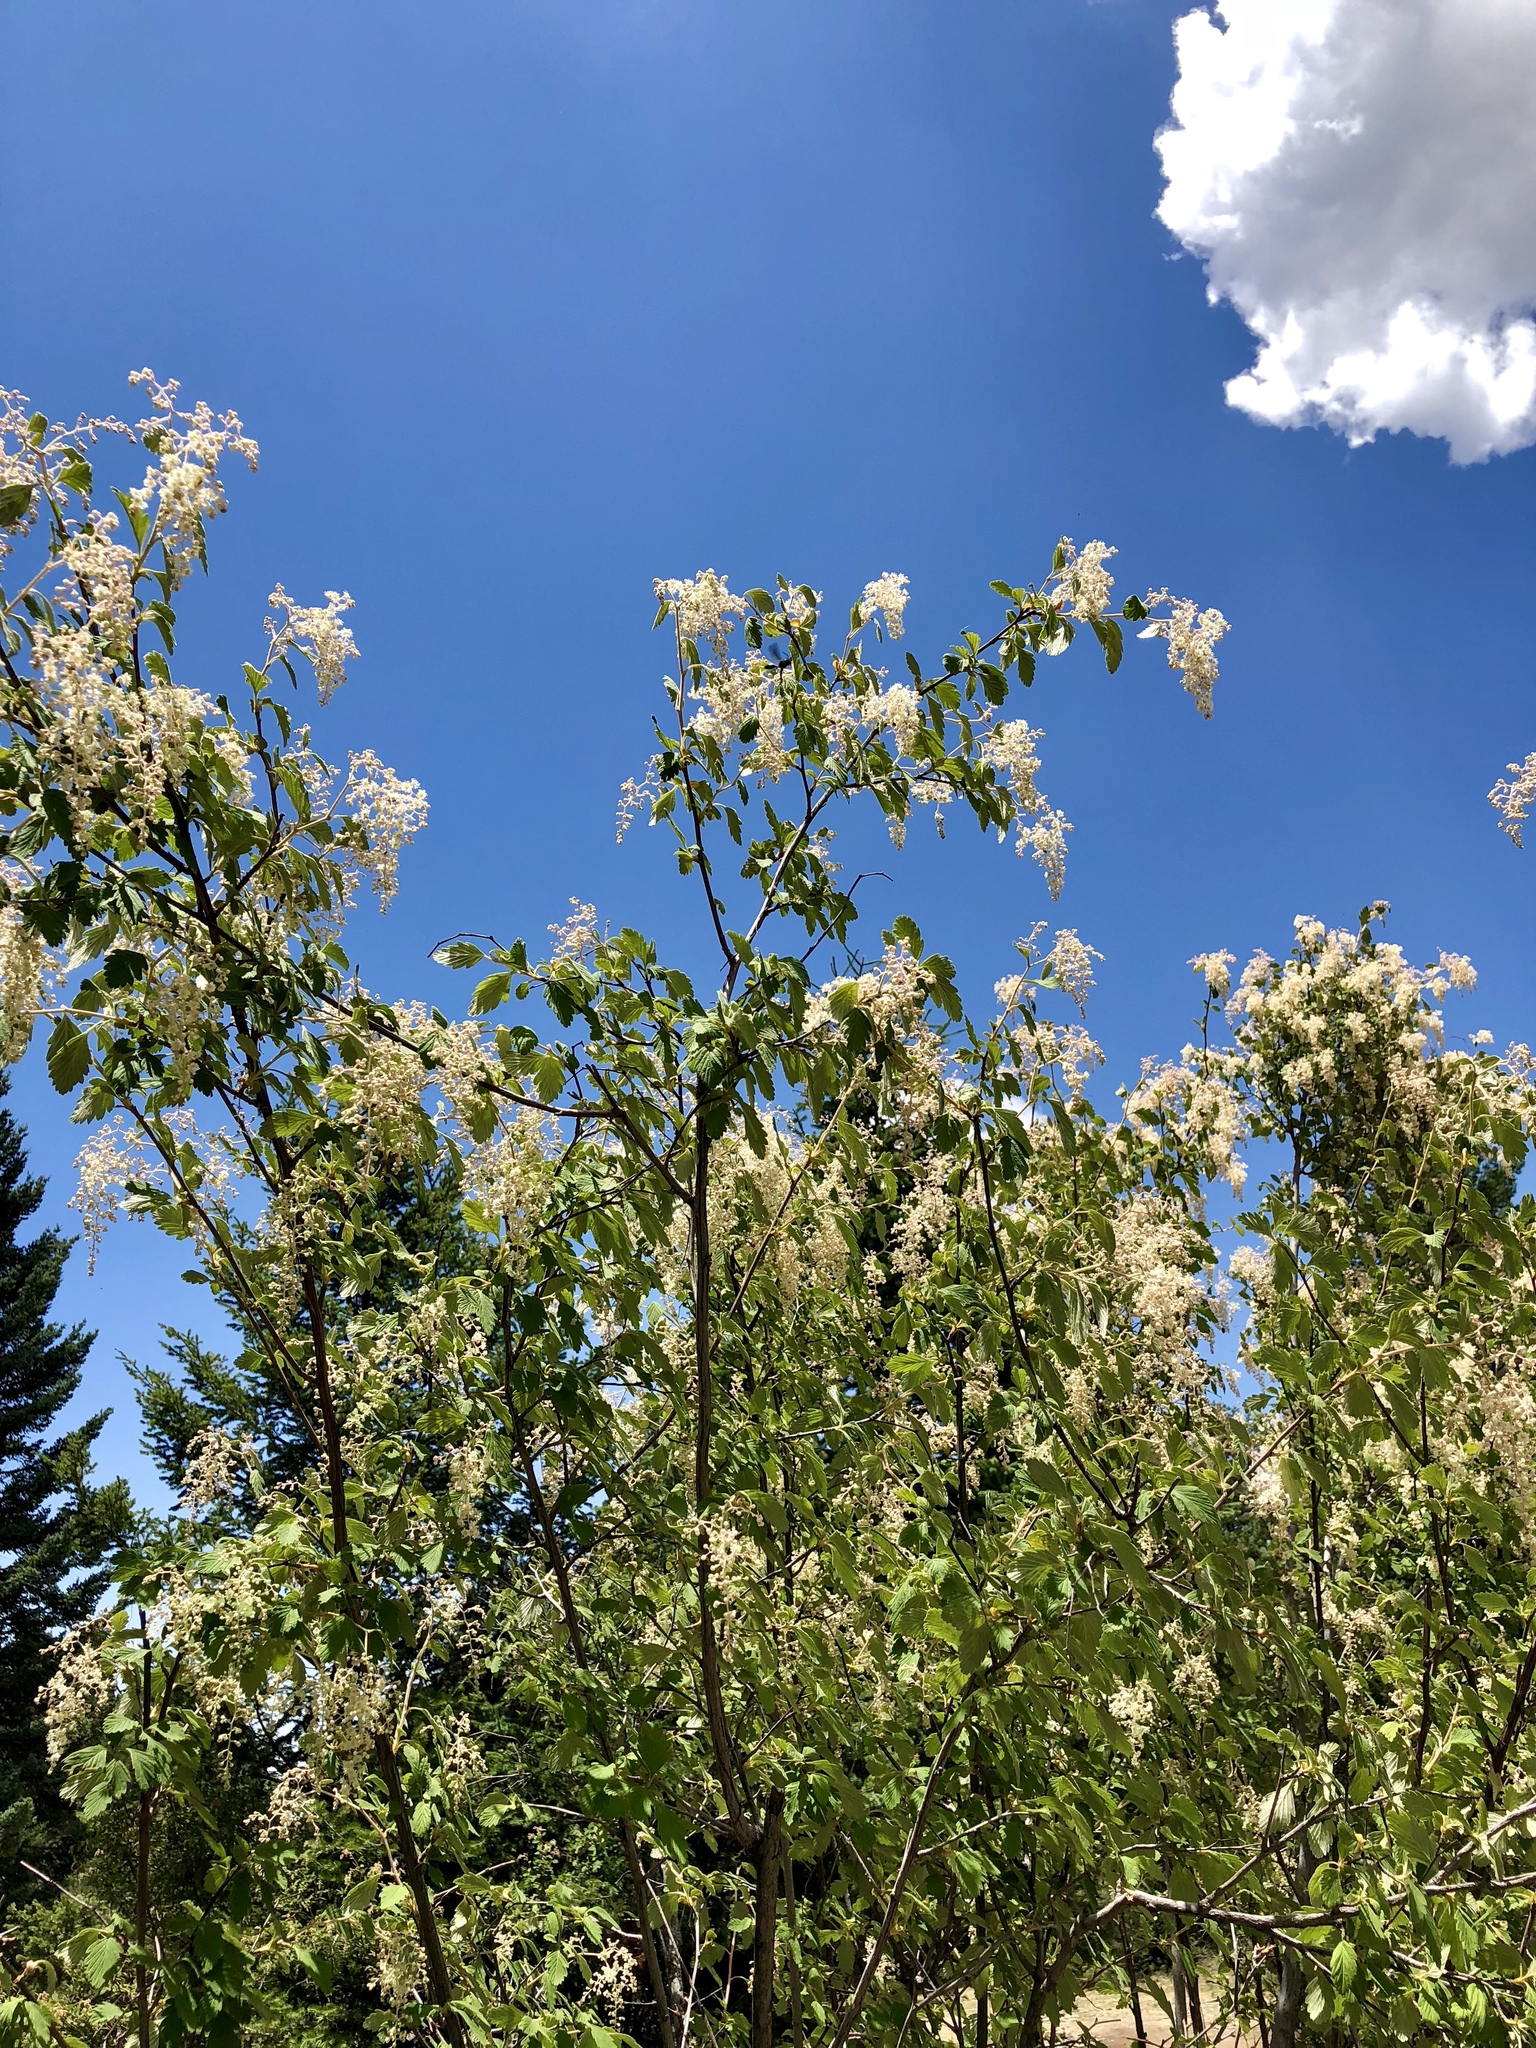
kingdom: Plantae
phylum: Tracheophyta
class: Magnoliopsida
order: Rosales
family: Rosaceae
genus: Holodiscus
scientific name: Holodiscus discolor
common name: Oceanspray
